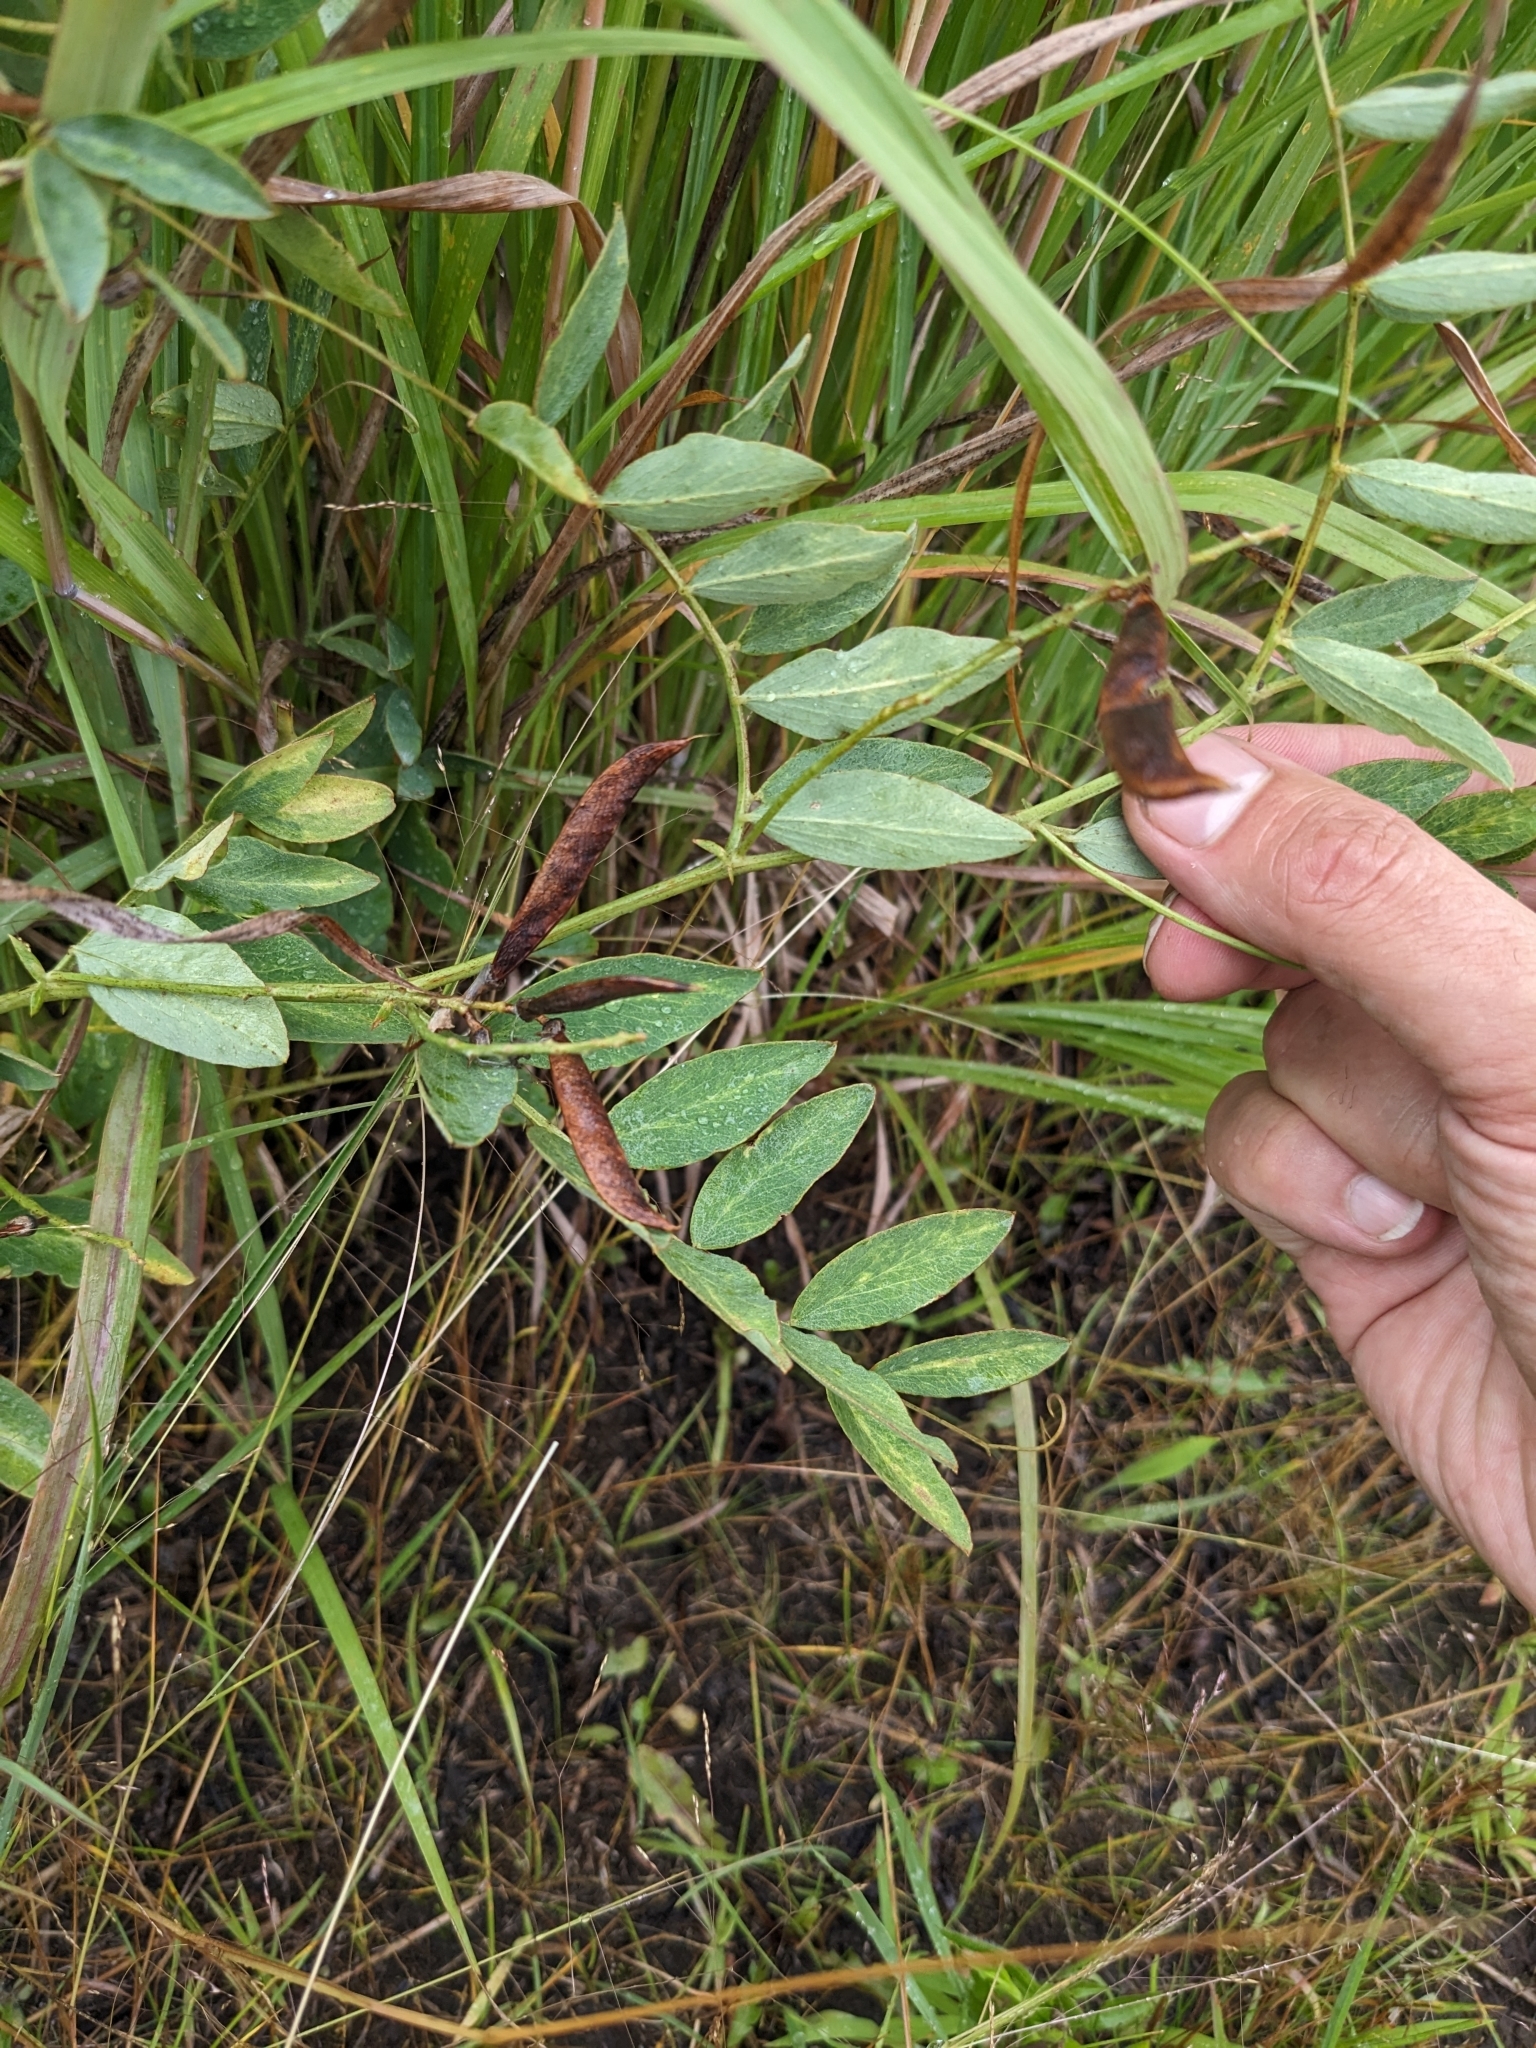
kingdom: Plantae
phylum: Tracheophyta
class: Magnoliopsida
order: Fabales
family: Fabaceae
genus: Lathyrus
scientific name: Lathyrus venosus
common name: Forest-pea
